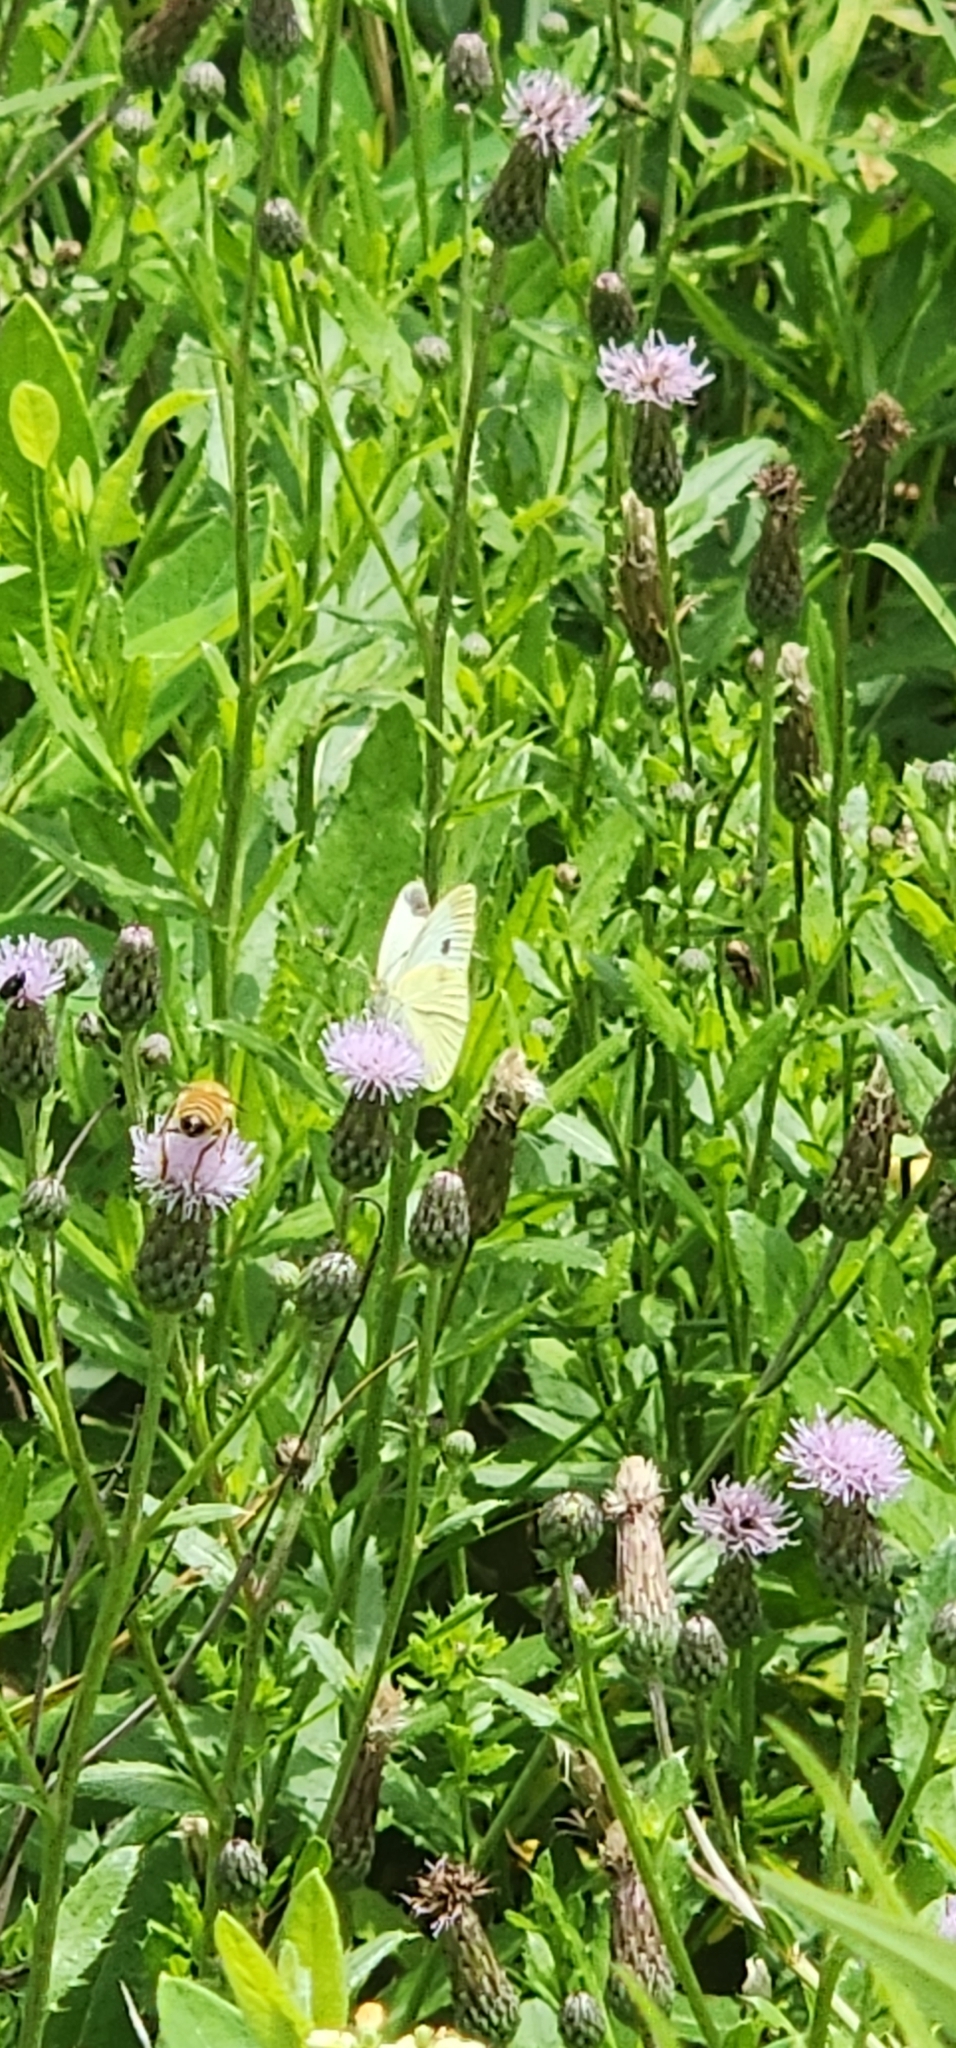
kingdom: Animalia
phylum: Arthropoda
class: Insecta
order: Lepidoptera
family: Pieridae
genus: Pieris
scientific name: Pieris rapae
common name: Small white
